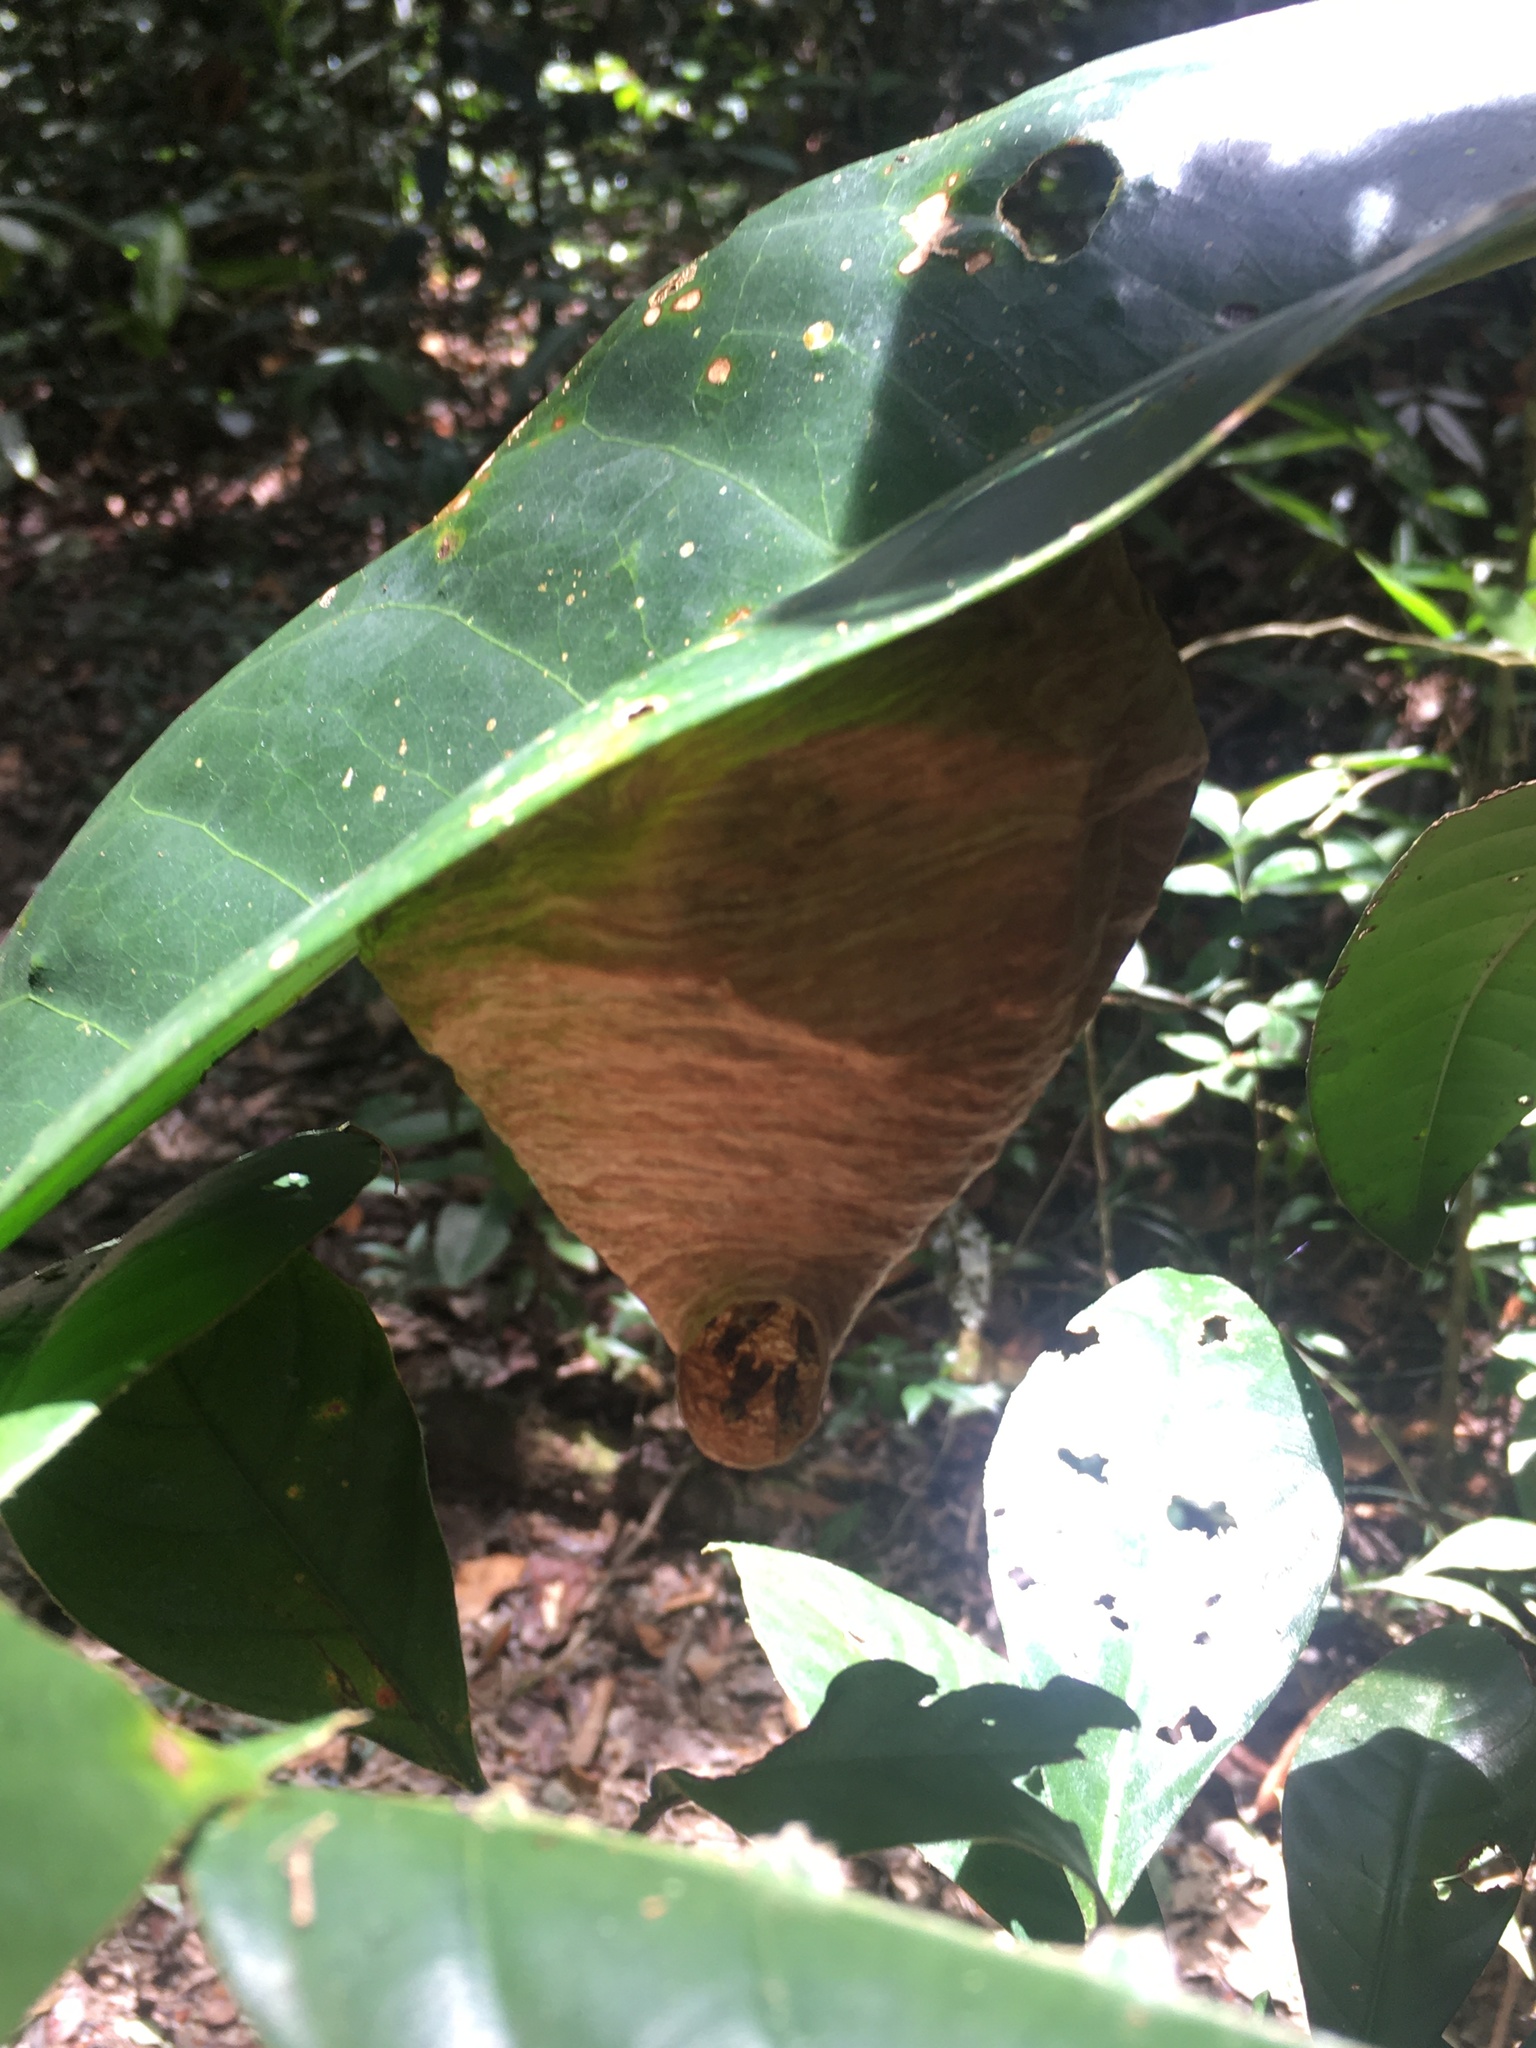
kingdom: Animalia
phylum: Arthropoda
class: Insecta
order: Hymenoptera
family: Vespidae
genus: Angiopolybia
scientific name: Angiopolybia pallens
